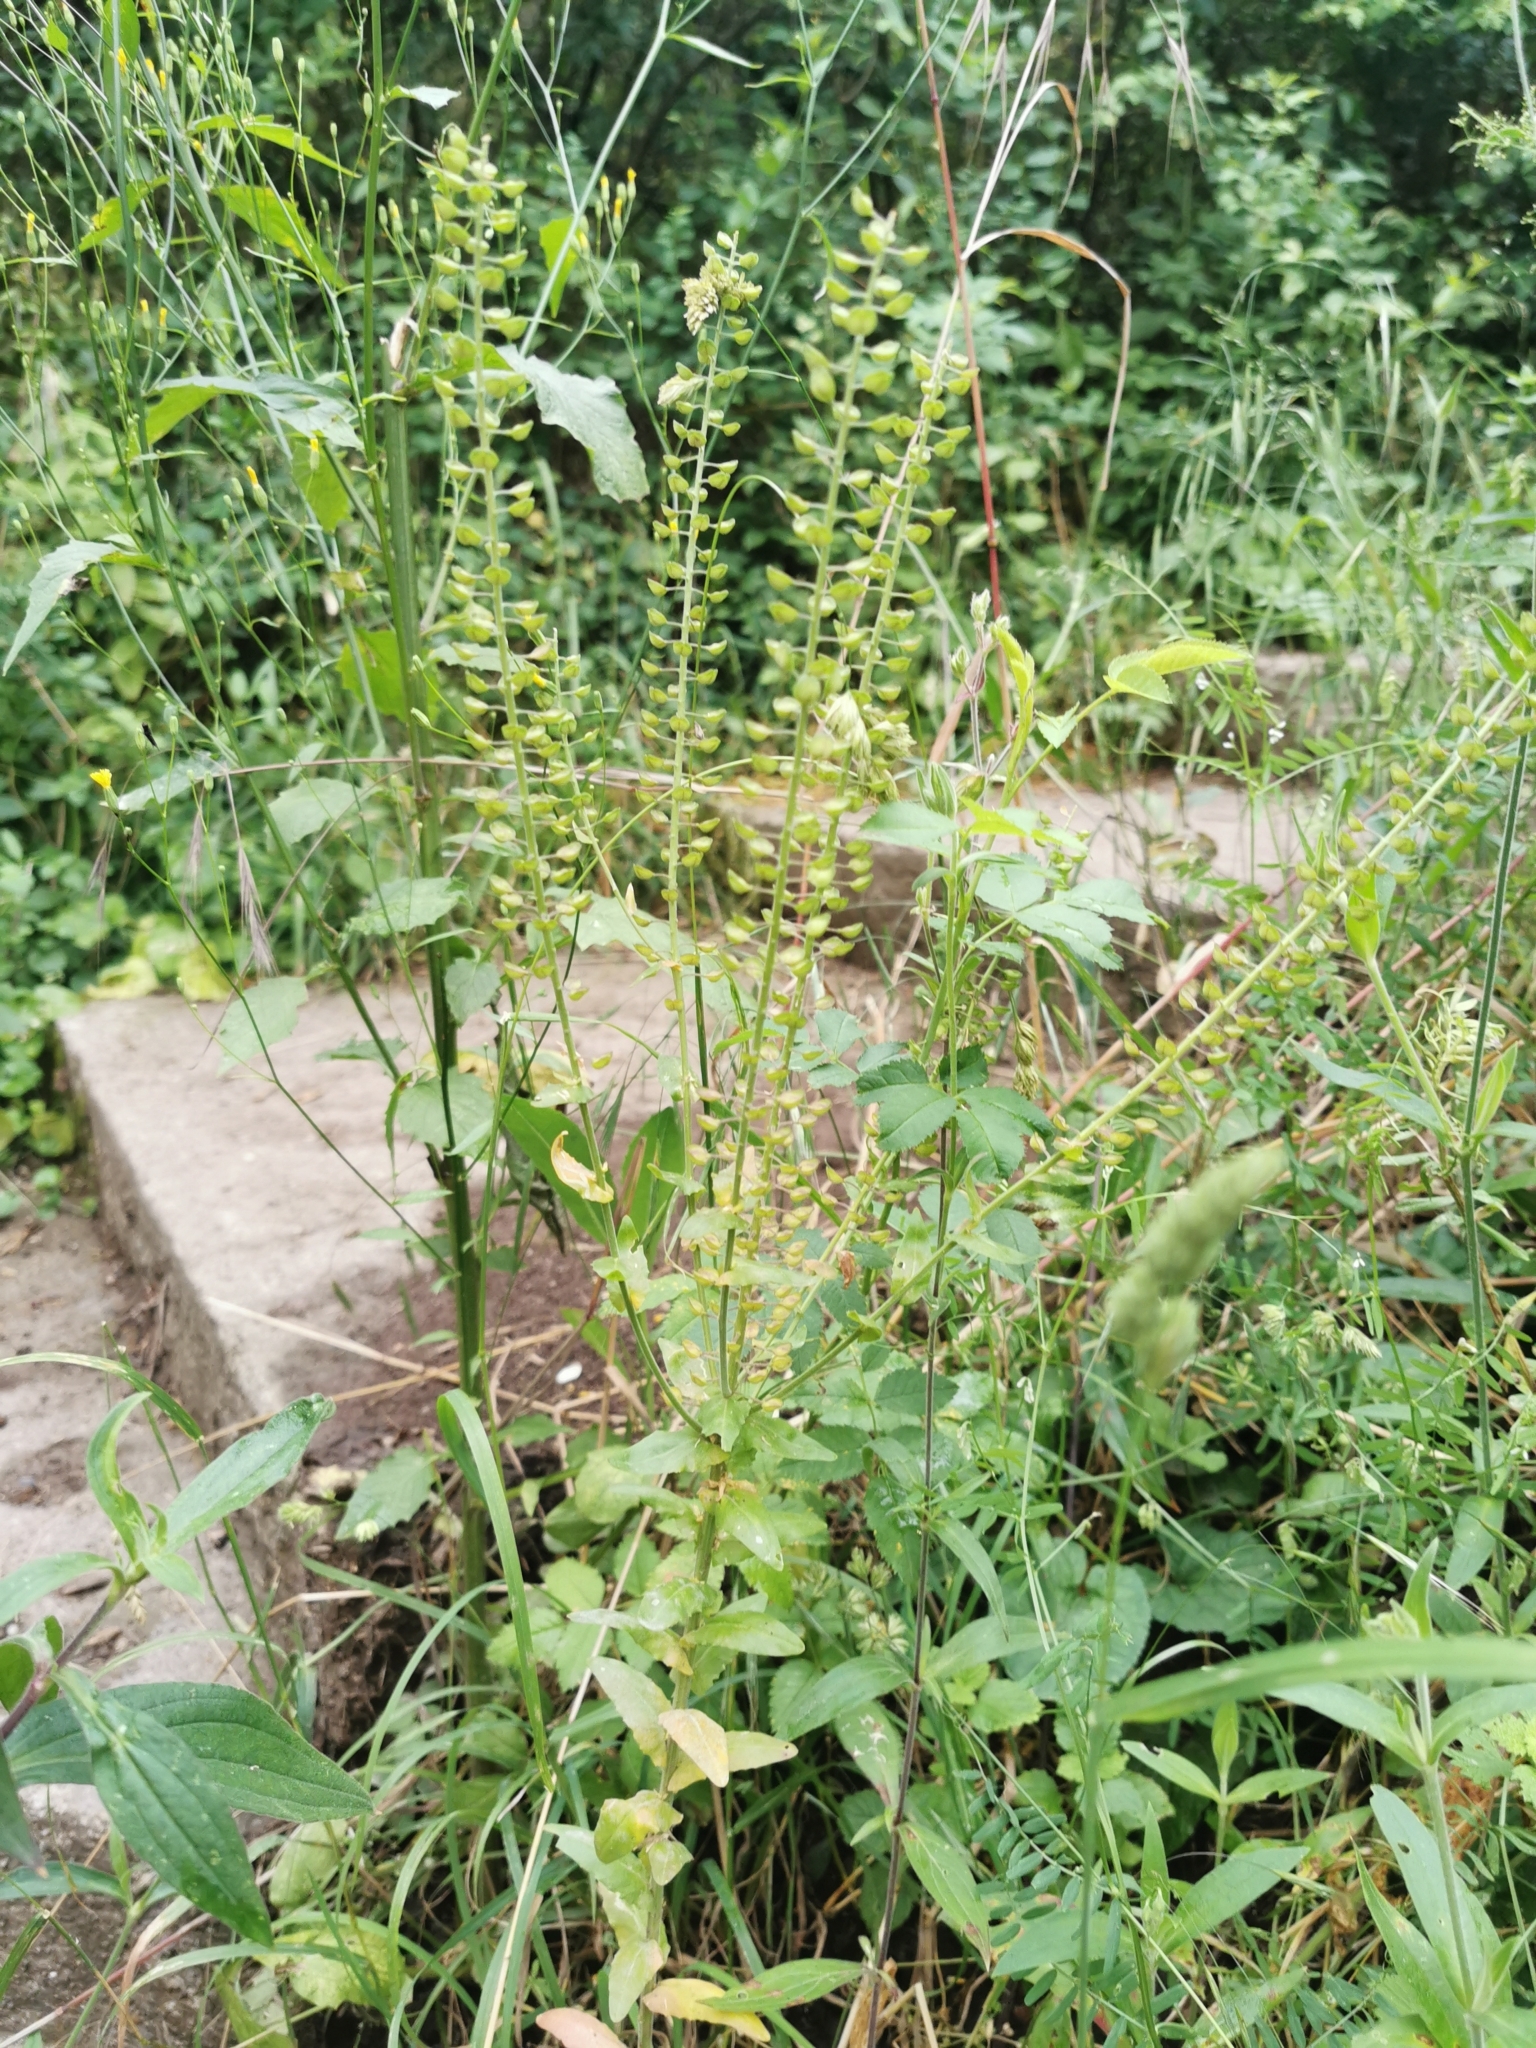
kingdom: Plantae
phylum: Tracheophyta
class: Magnoliopsida
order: Brassicales
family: Brassicaceae
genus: Lepidium
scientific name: Lepidium campestre
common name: Field pepperwort
